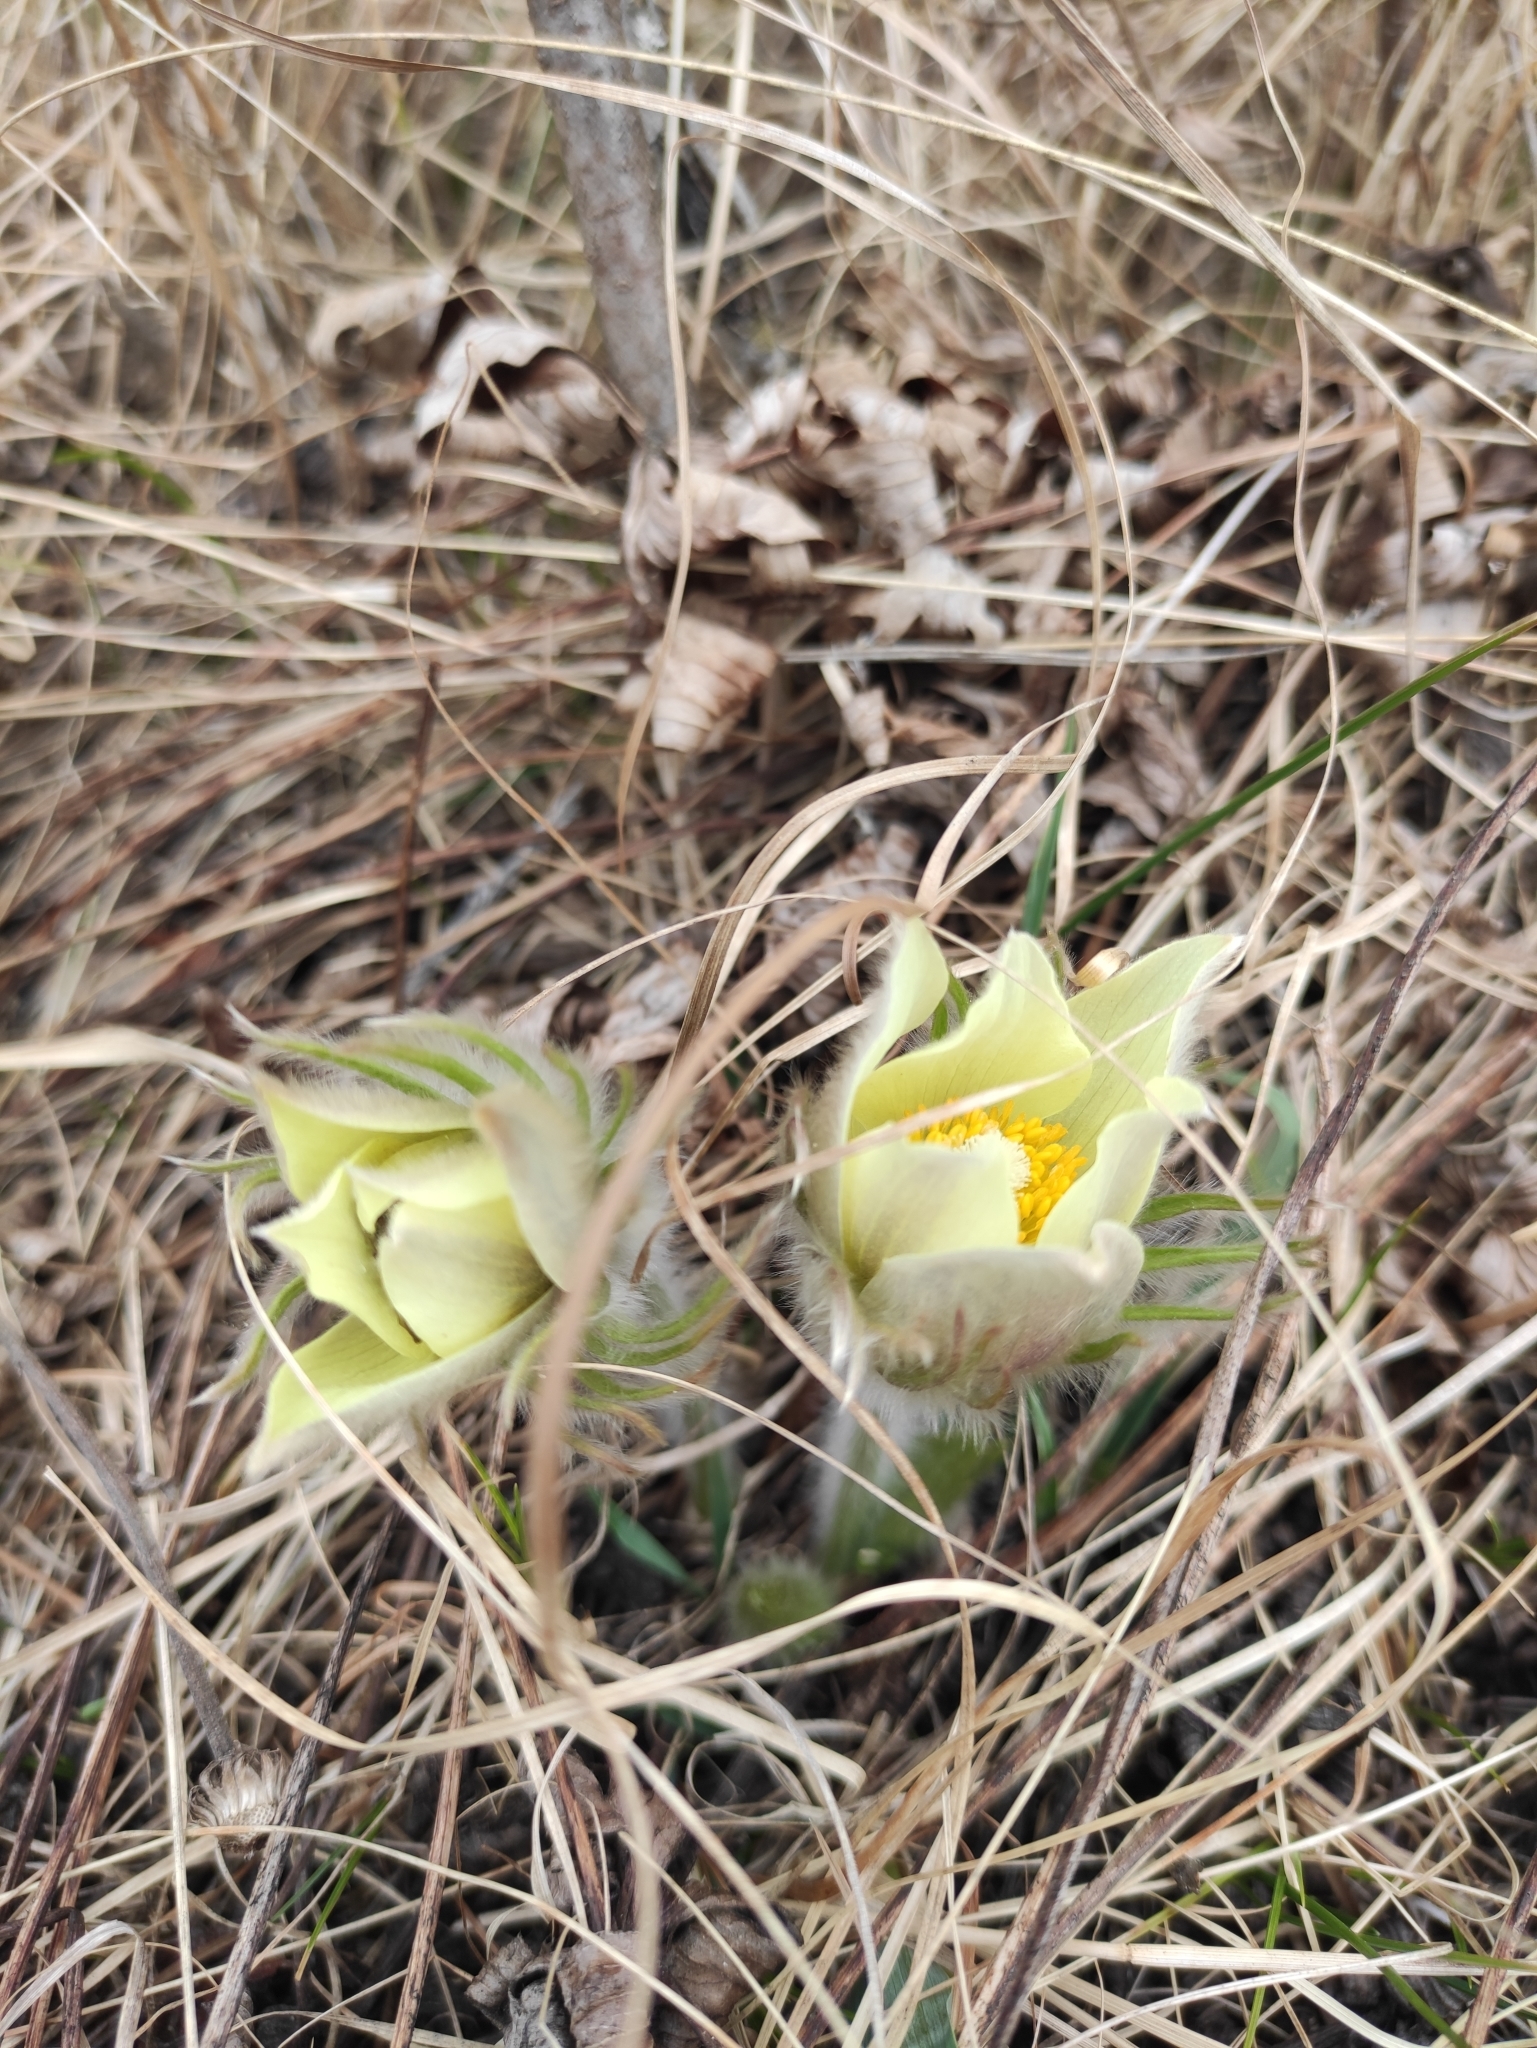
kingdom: Plantae
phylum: Tracheophyta
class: Magnoliopsida
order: Ranunculales
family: Ranunculaceae
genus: Pulsatilla
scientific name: Pulsatilla patens
